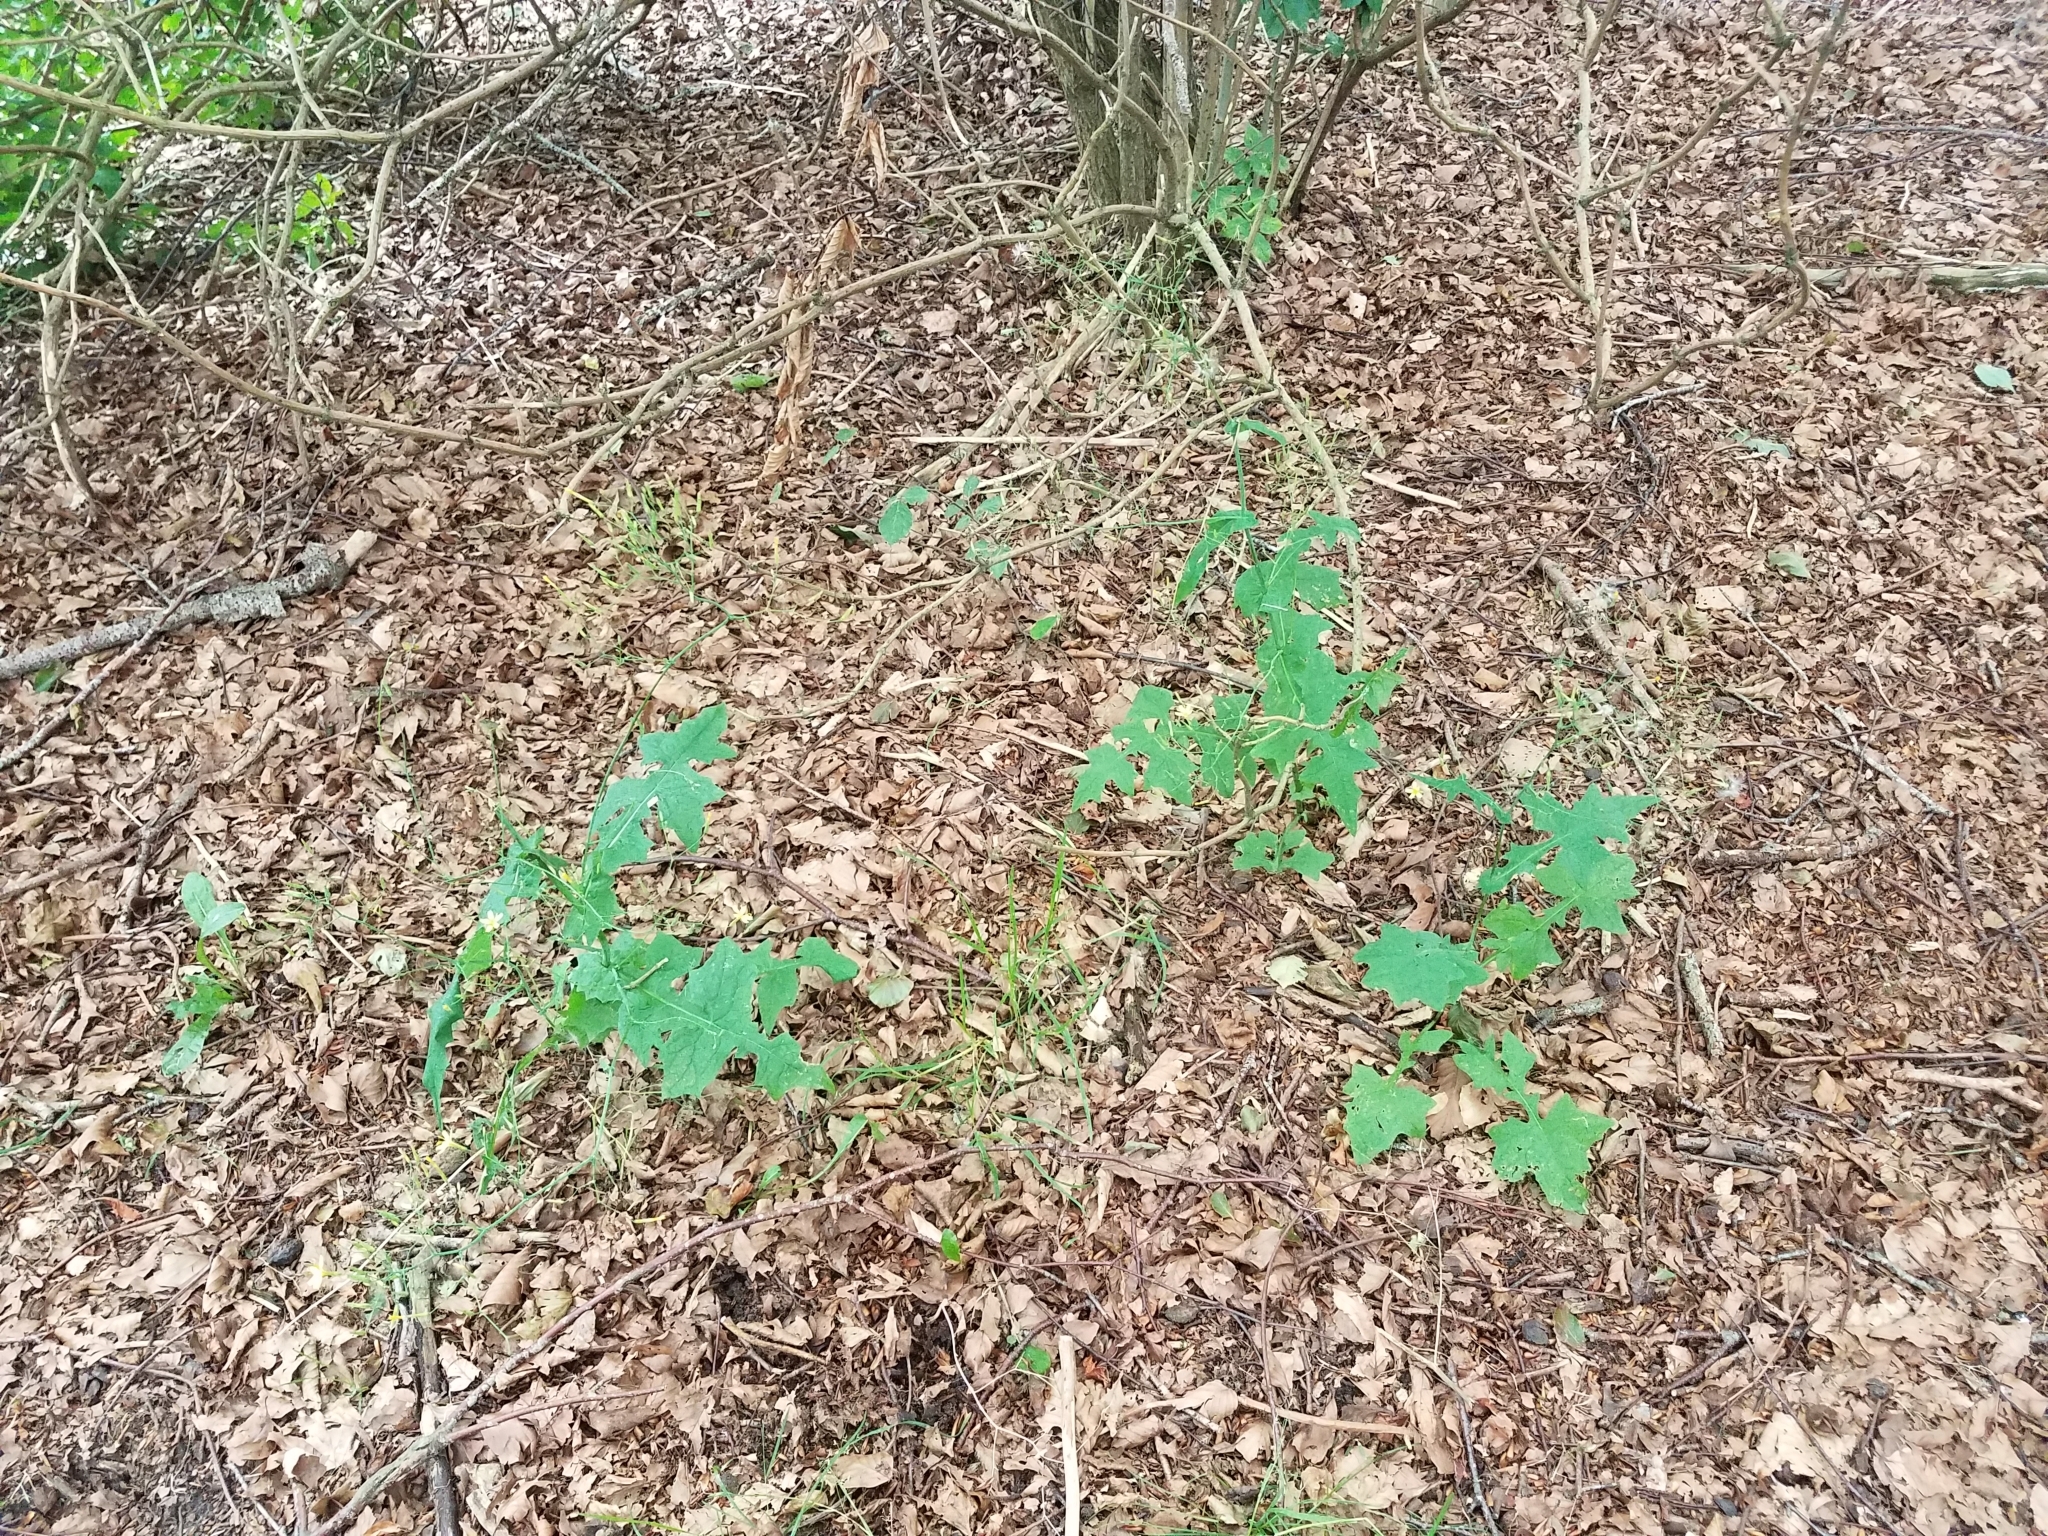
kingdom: Plantae
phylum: Tracheophyta
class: Magnoliopsida
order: Asterales
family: Asteraceae
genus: Mycelis
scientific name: Mycelis muralis
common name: Wall lettuce
